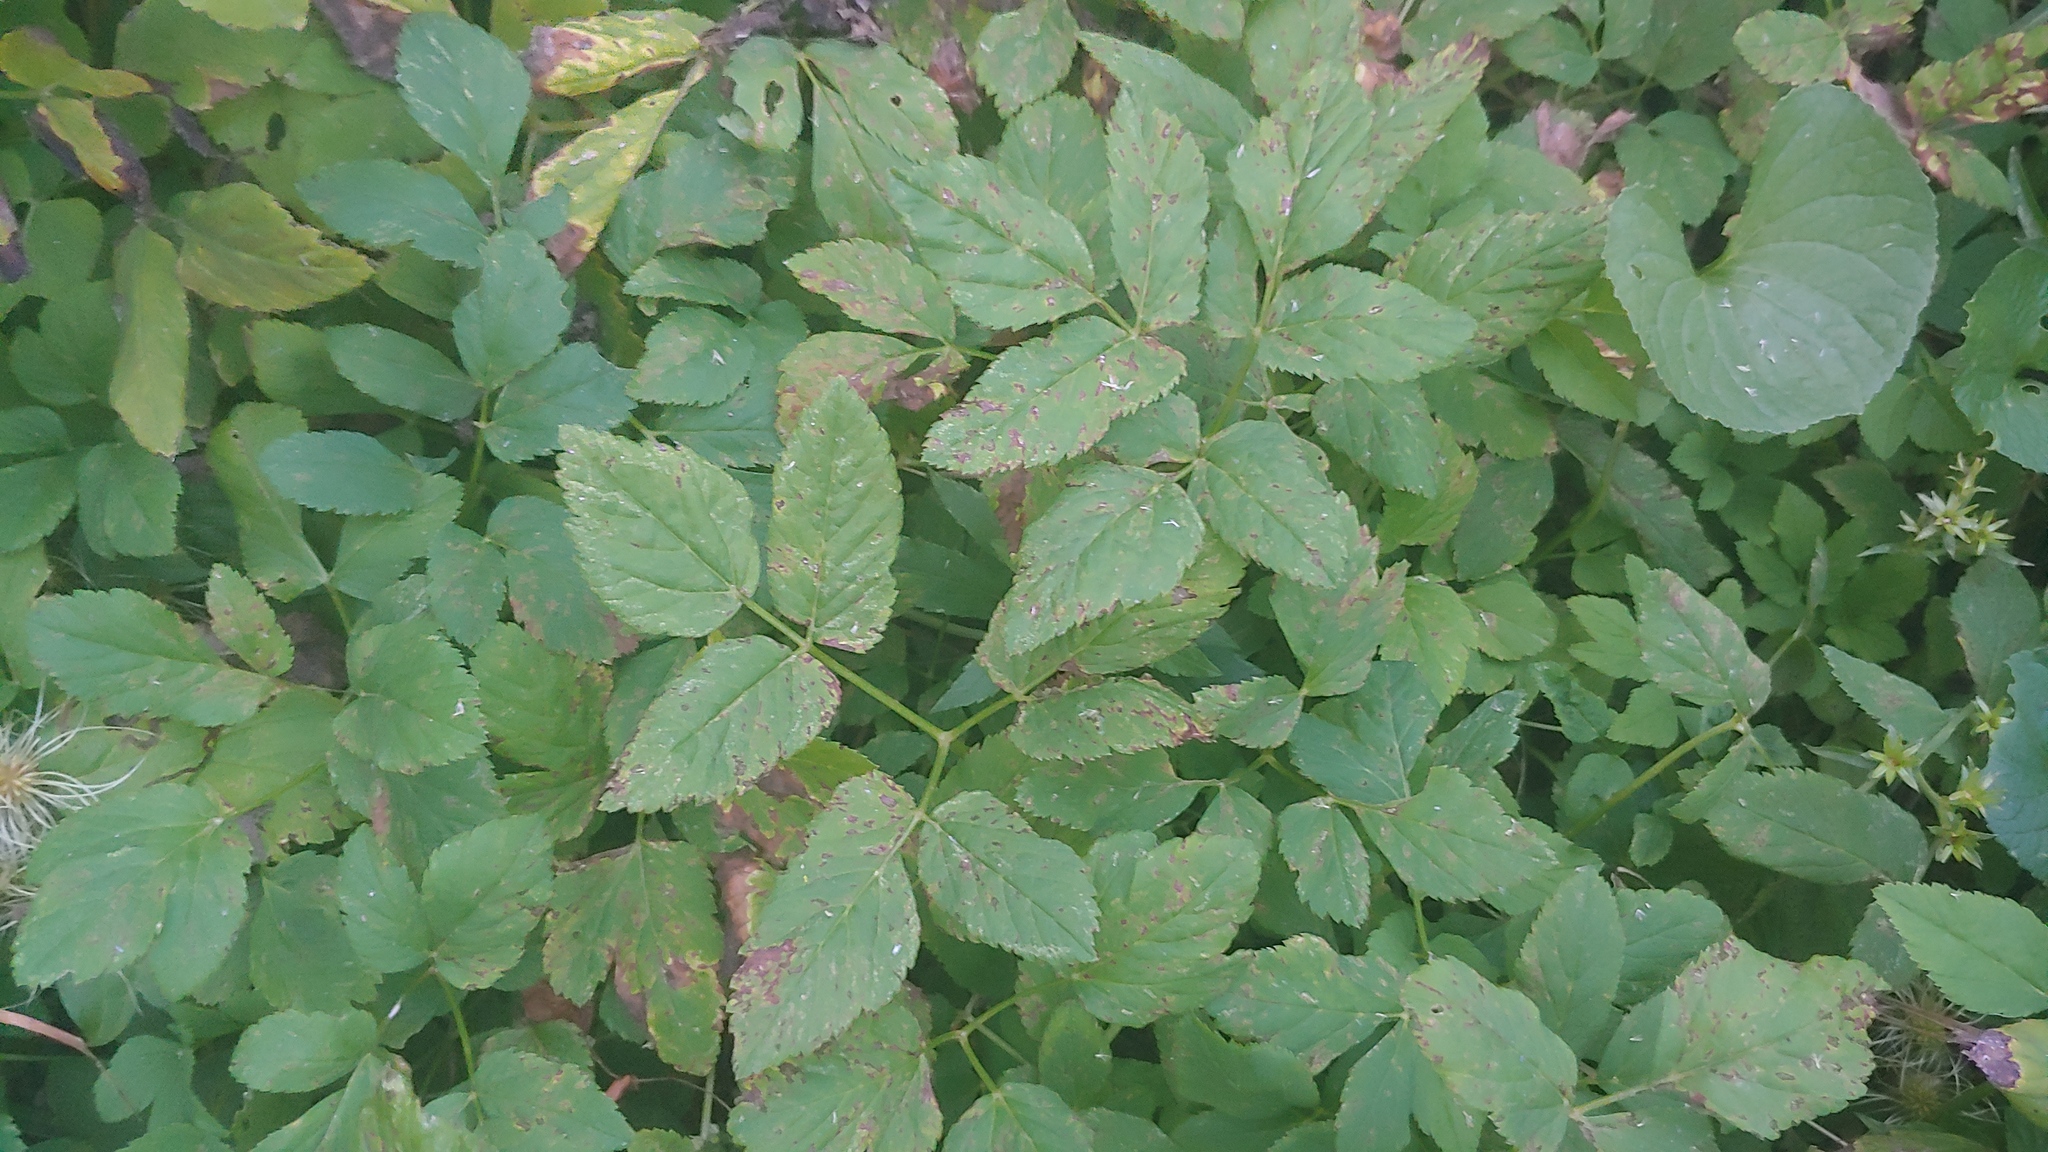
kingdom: Plantae
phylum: Tracheophyta
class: Magnoliopsida
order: Apiales
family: Apiaceae
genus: Aegopodium
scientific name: Aegopodium podagraria
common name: Ground-elder
